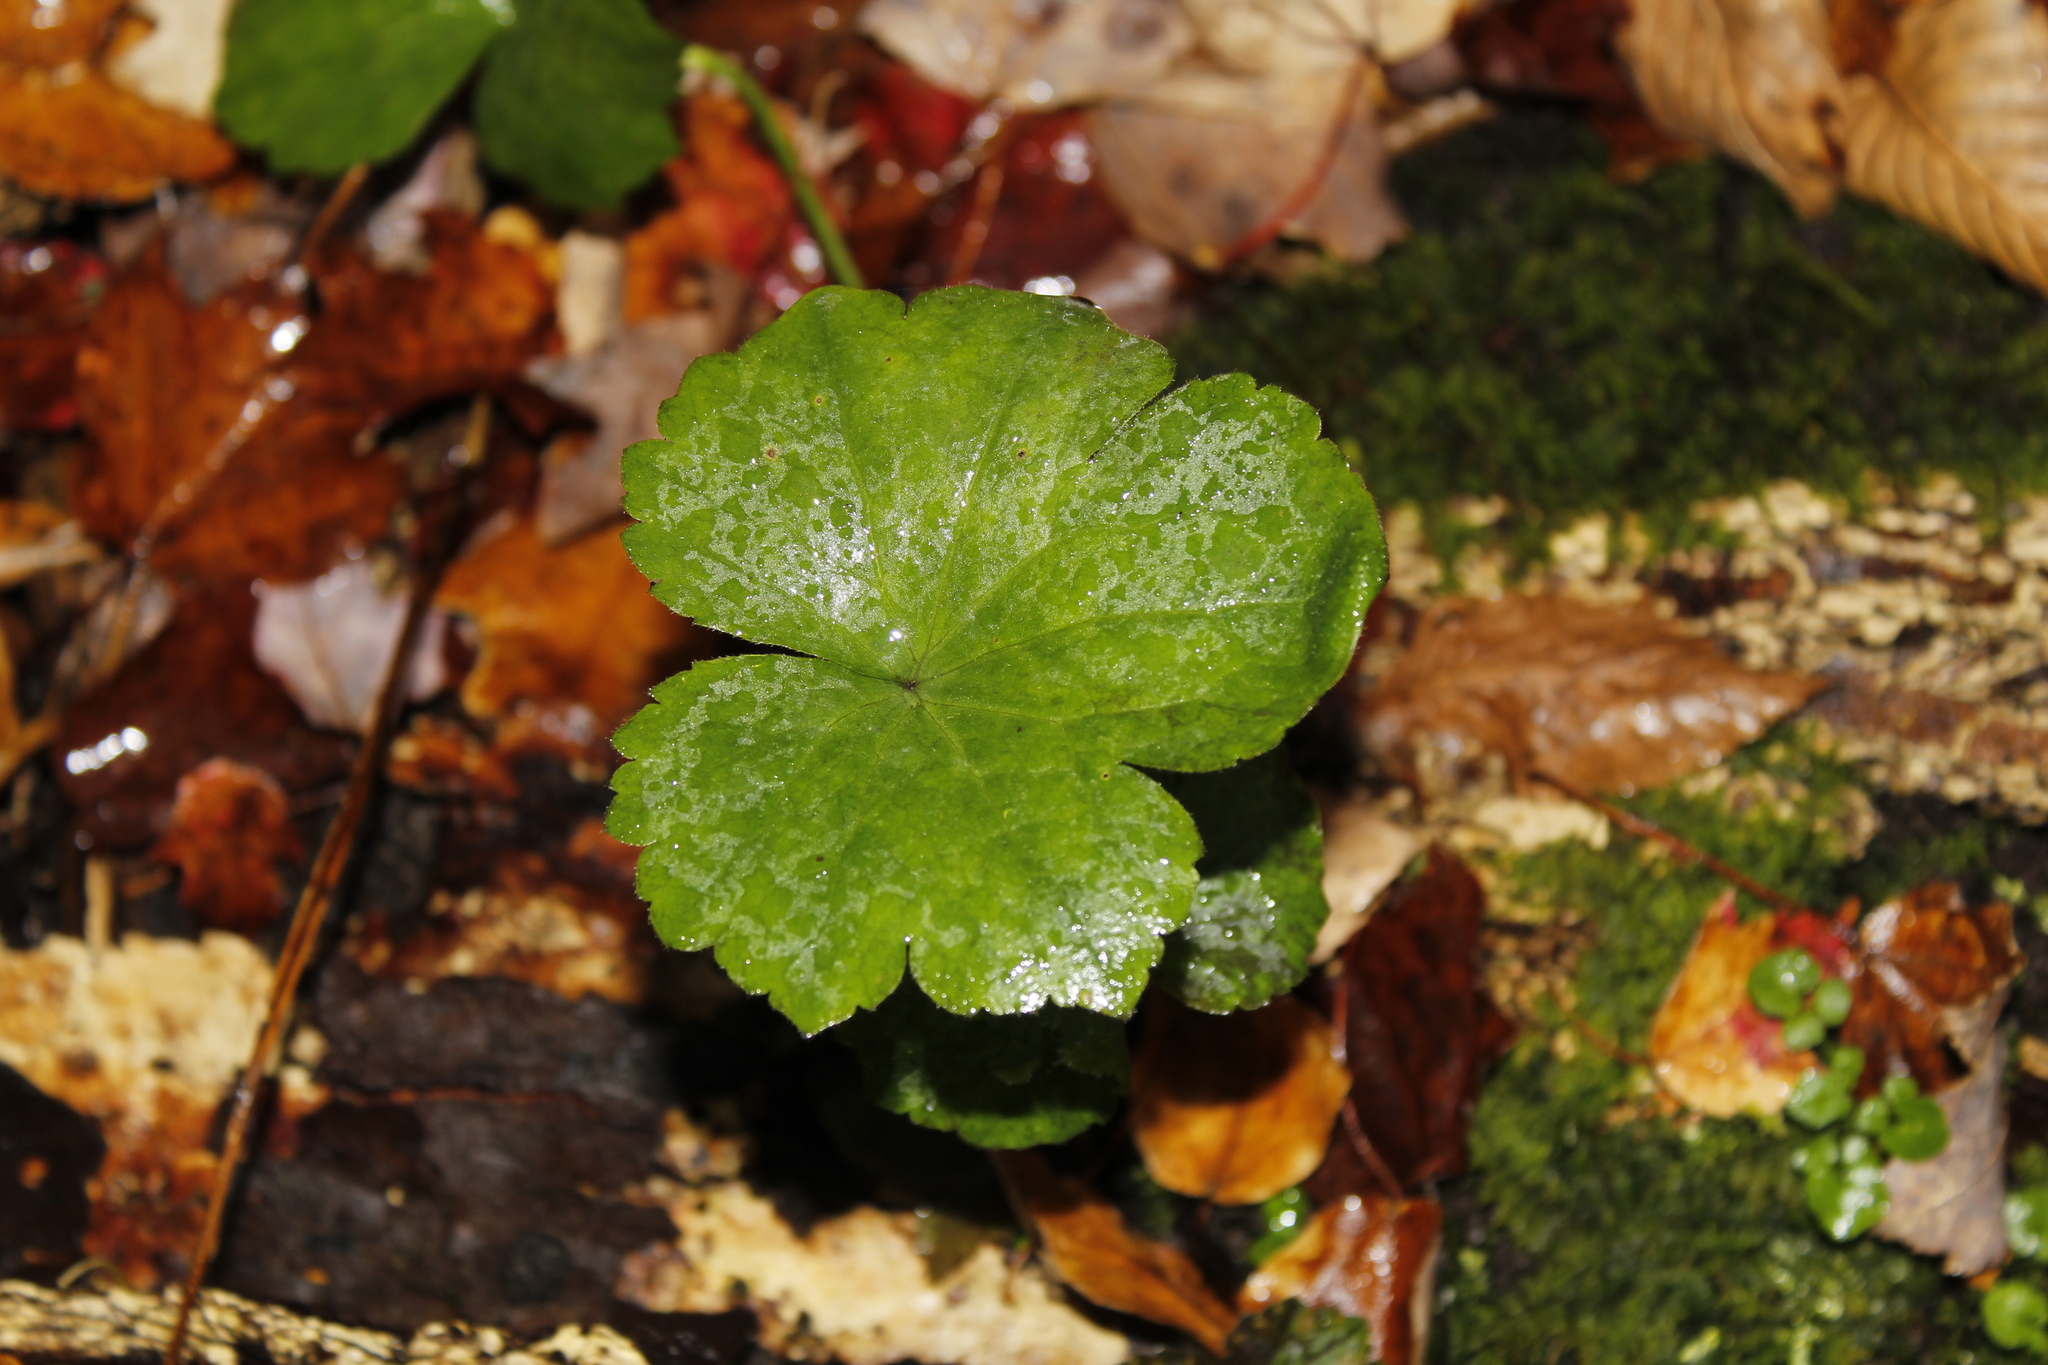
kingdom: Plantae
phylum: Tracheophyta
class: Magnoliopsida
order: Saxifragales
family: Saxifragaceae
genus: Tiarella
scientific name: Tiarella stolonifera
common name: Stoloniferous foamflower
